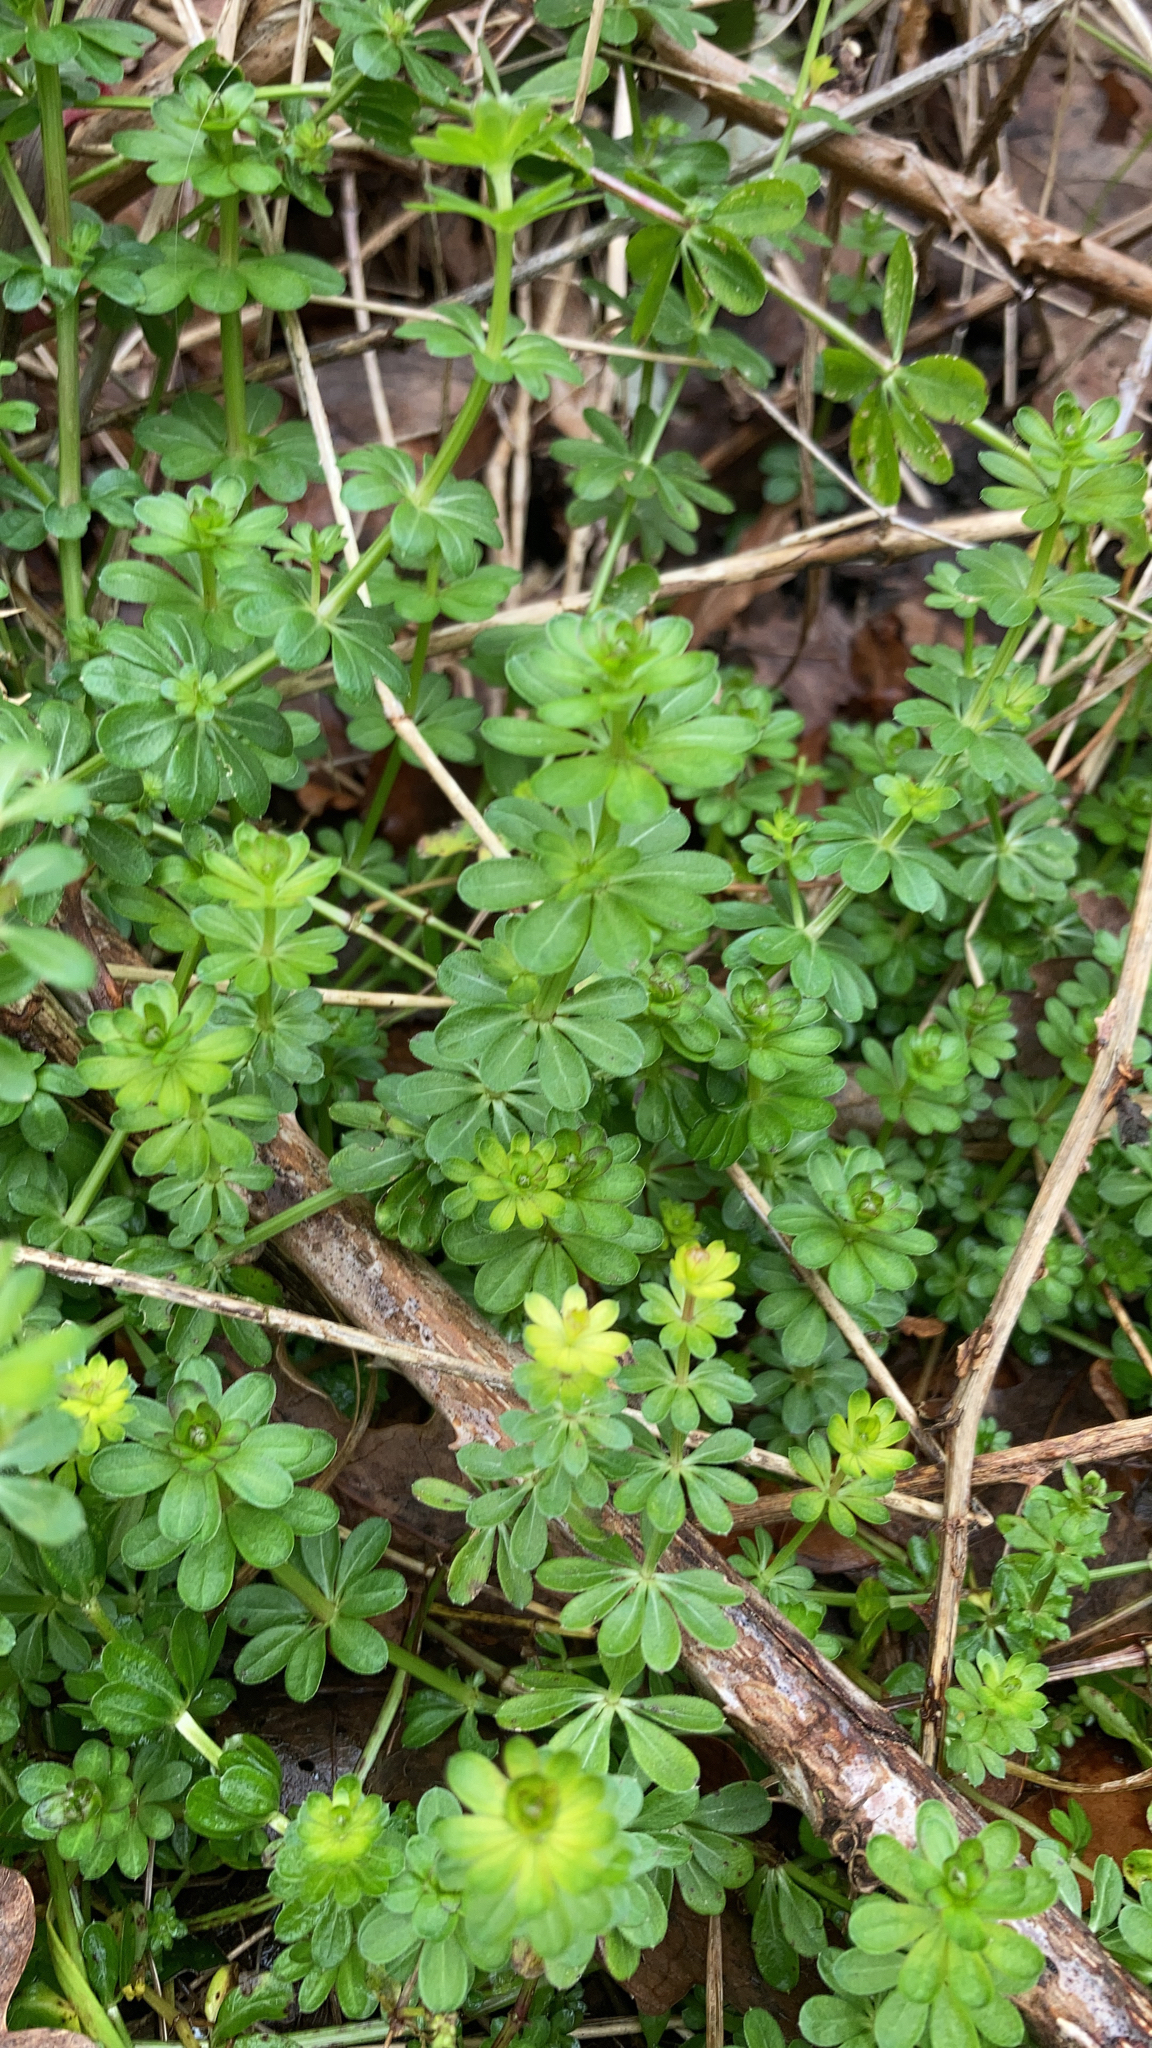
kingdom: Plantae
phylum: Tracheophyta
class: Magnoliopsida
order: Gentianales
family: Rubiaceae
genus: Galium
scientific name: Galium mollugo
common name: Hedge bedstraw
